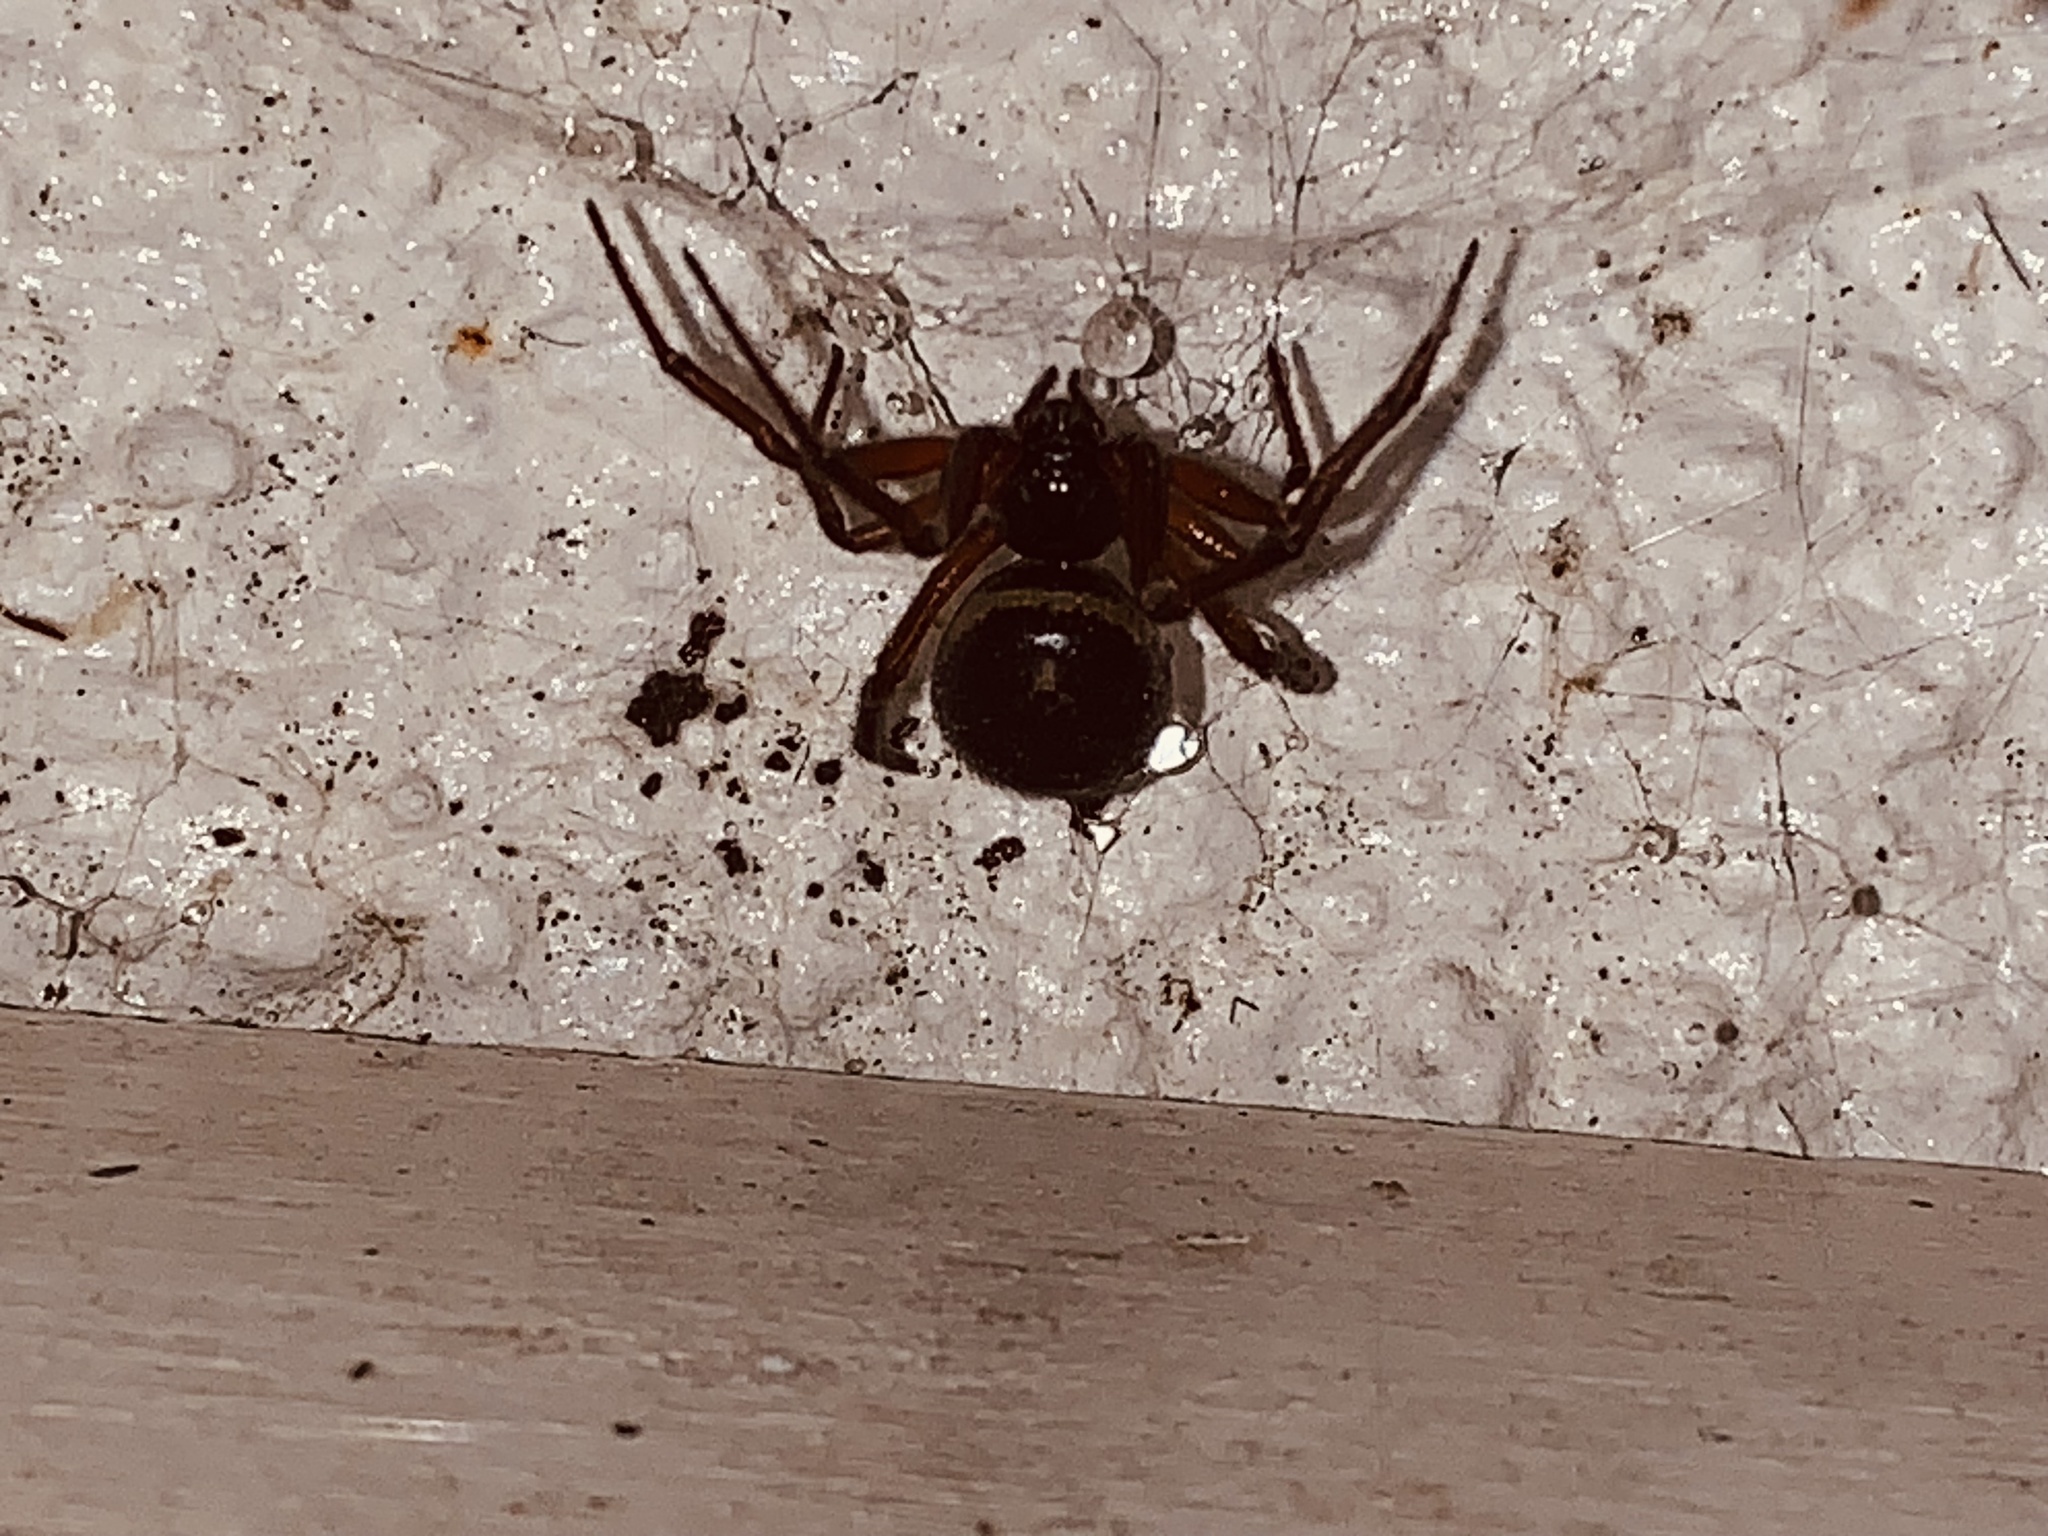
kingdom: Animalia
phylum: Arthropoda
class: Arachnida
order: Araneae
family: Theridiidae
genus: Steatoda
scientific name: Steatoda nobilis
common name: Cobweb weaver
